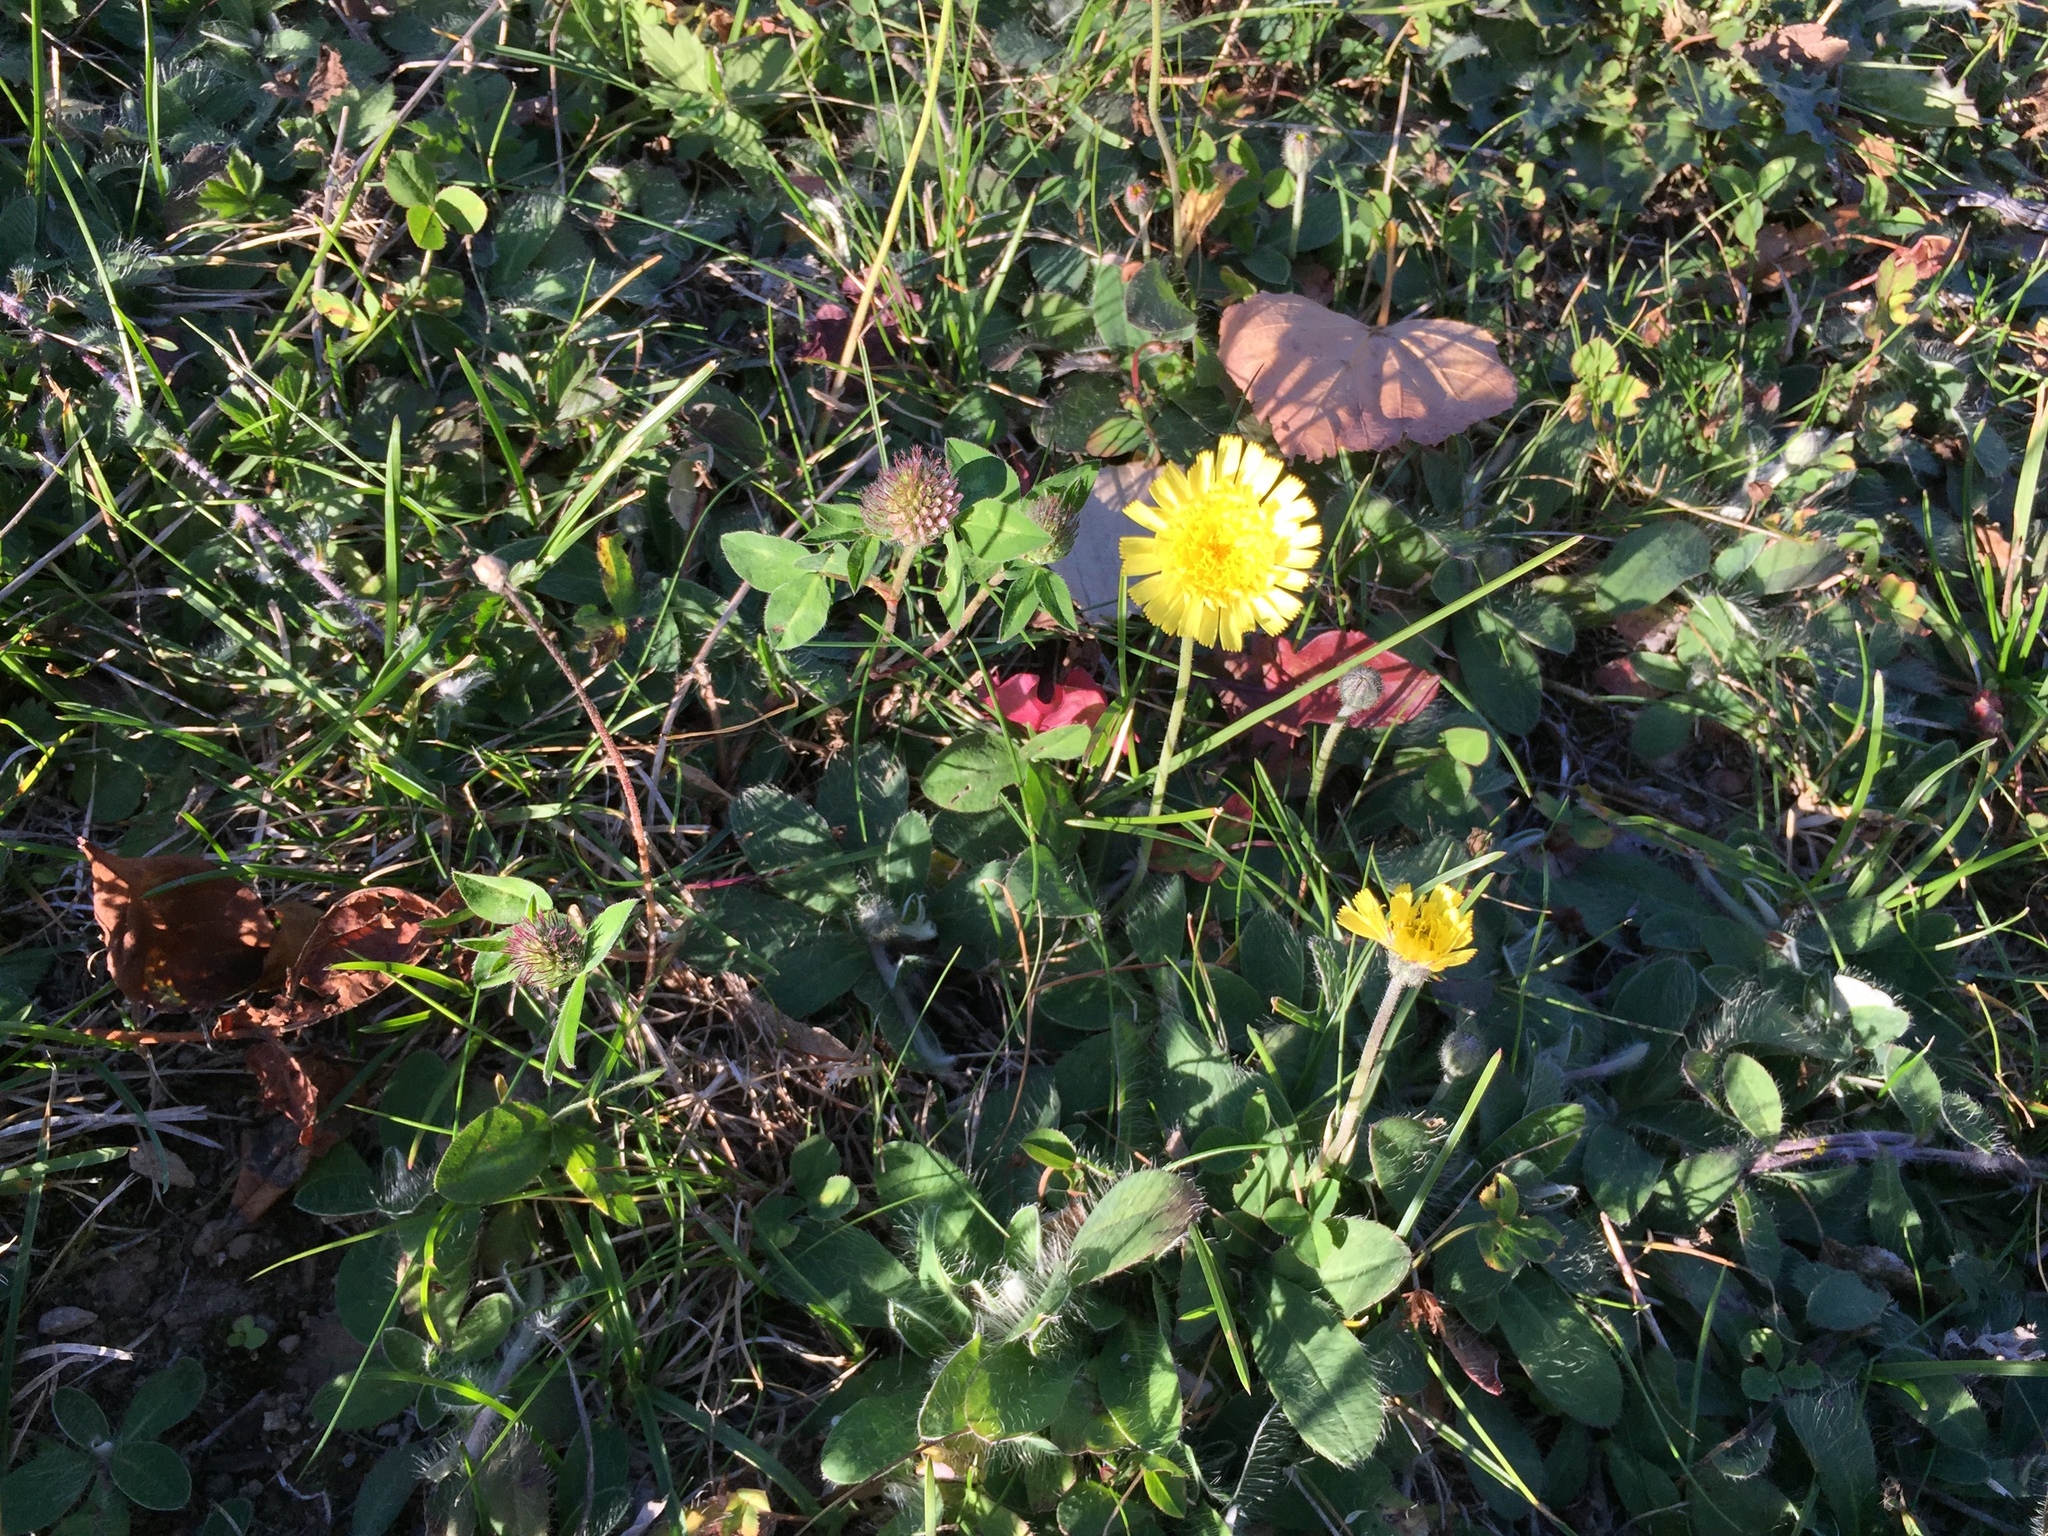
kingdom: Plantae
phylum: Tracheophyta
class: Magnoliopsida
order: Asterales
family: Asteraceae
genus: Pilosella
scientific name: Pilosella officinarum
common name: Mouse-ear hawkweed
